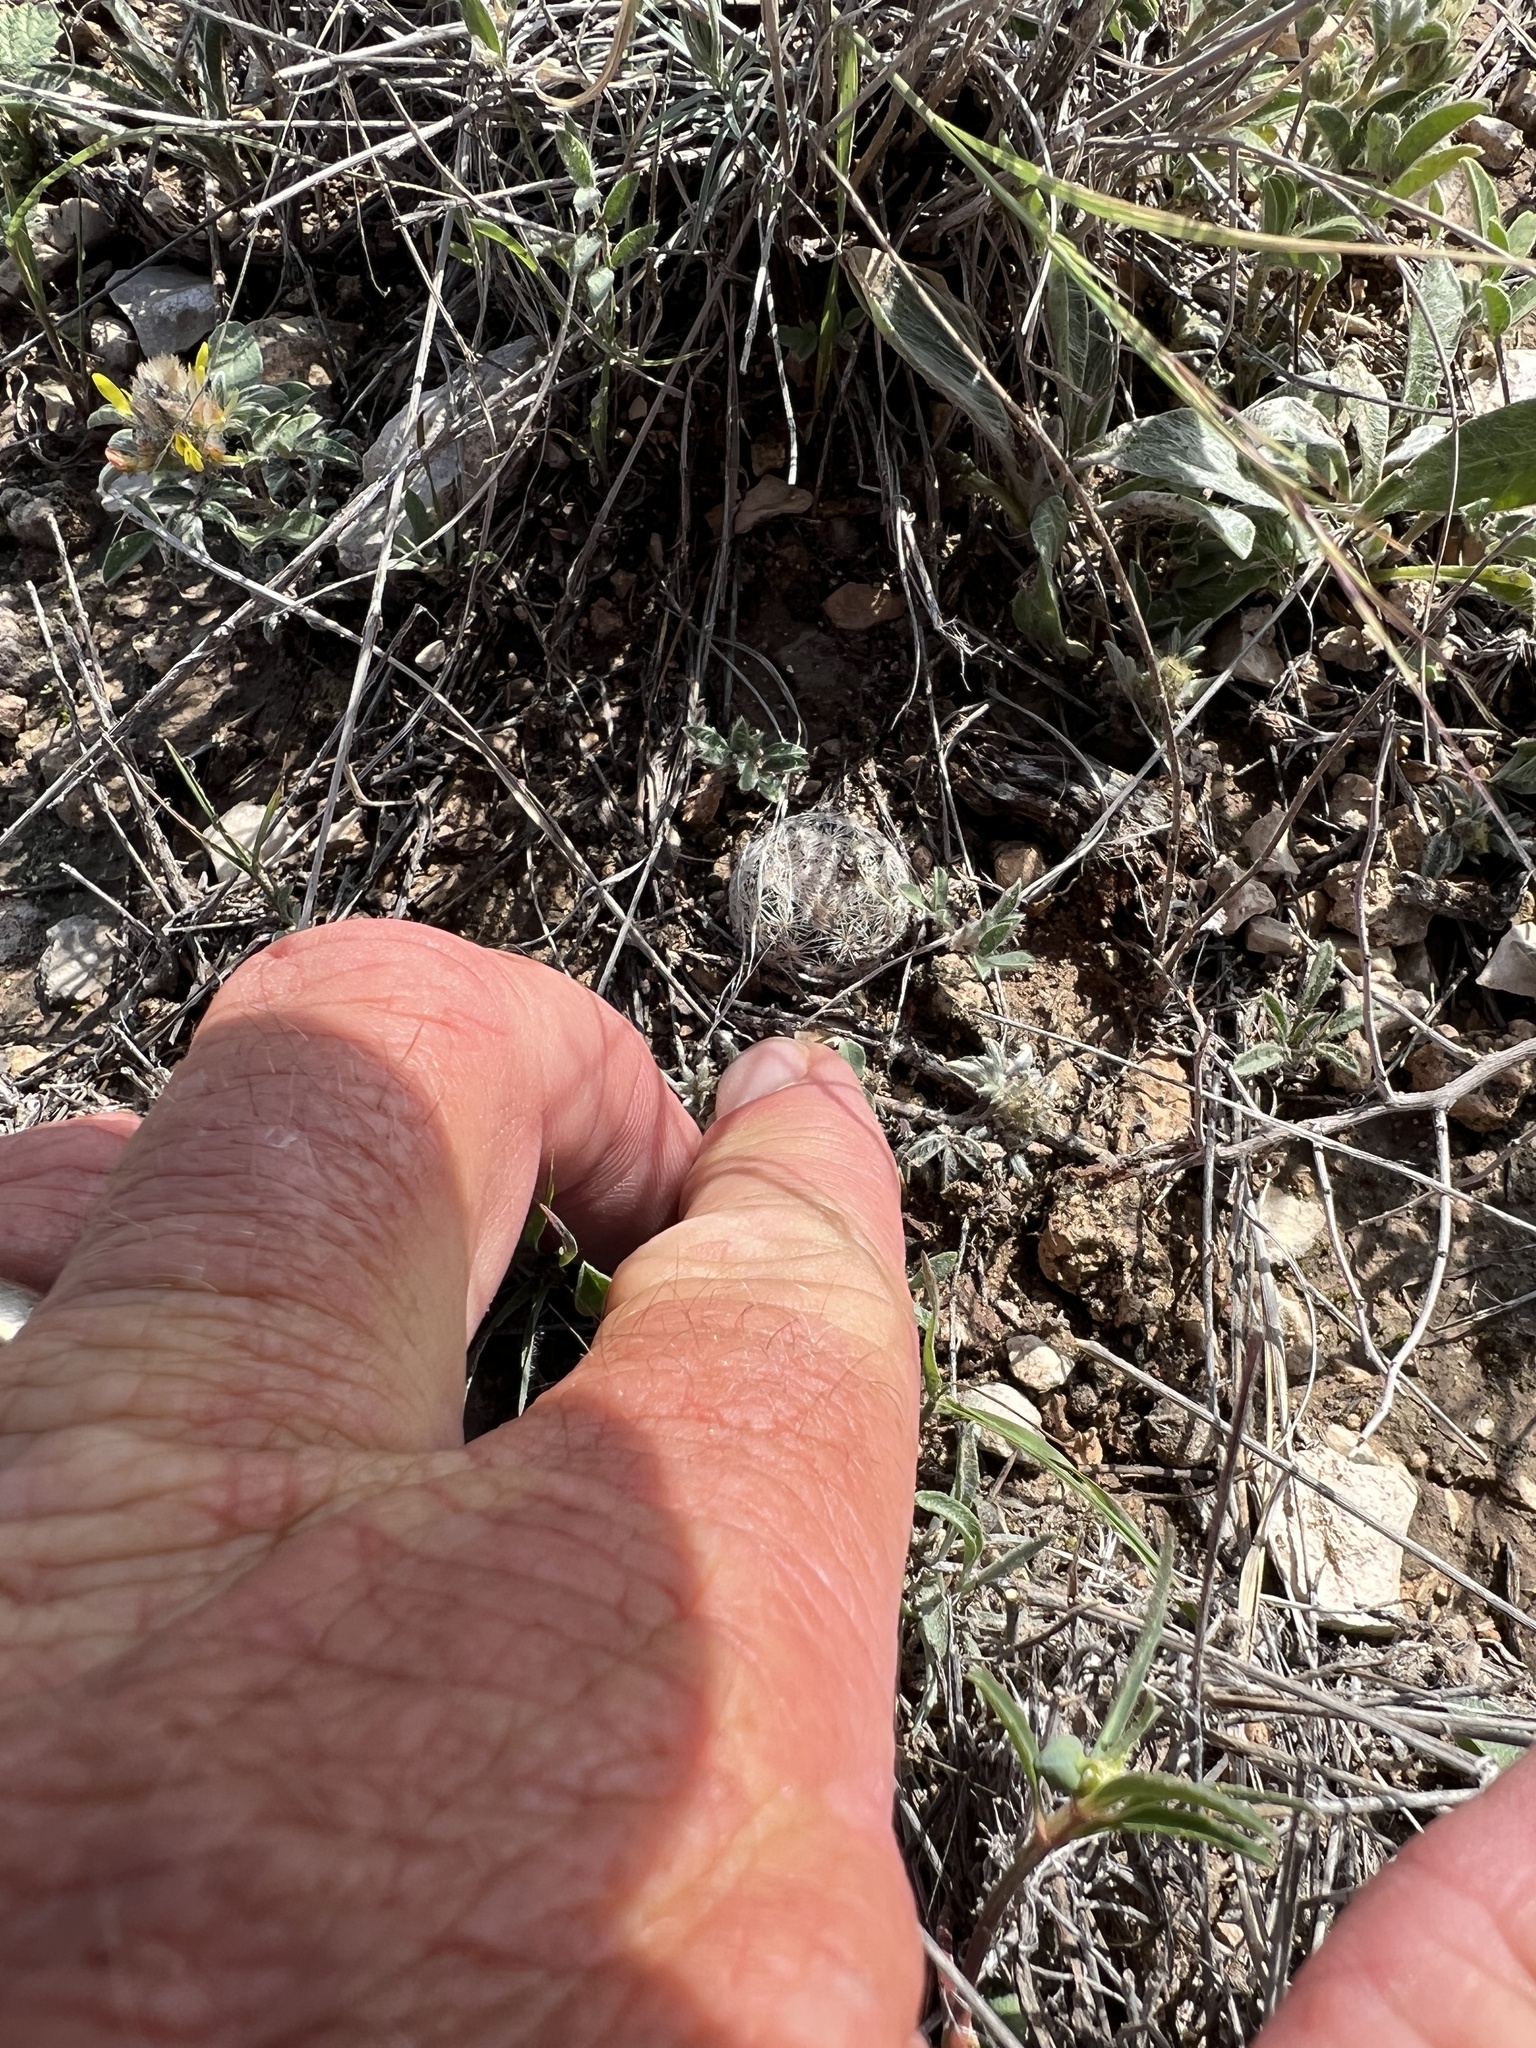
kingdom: Plantae
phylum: Tracheophyta
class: Magnoliopsida
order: Caryophyllales
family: Cactaceae
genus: Mammillaria
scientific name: Mammillaria lasiacantha
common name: Lace-spine nipple cactus
